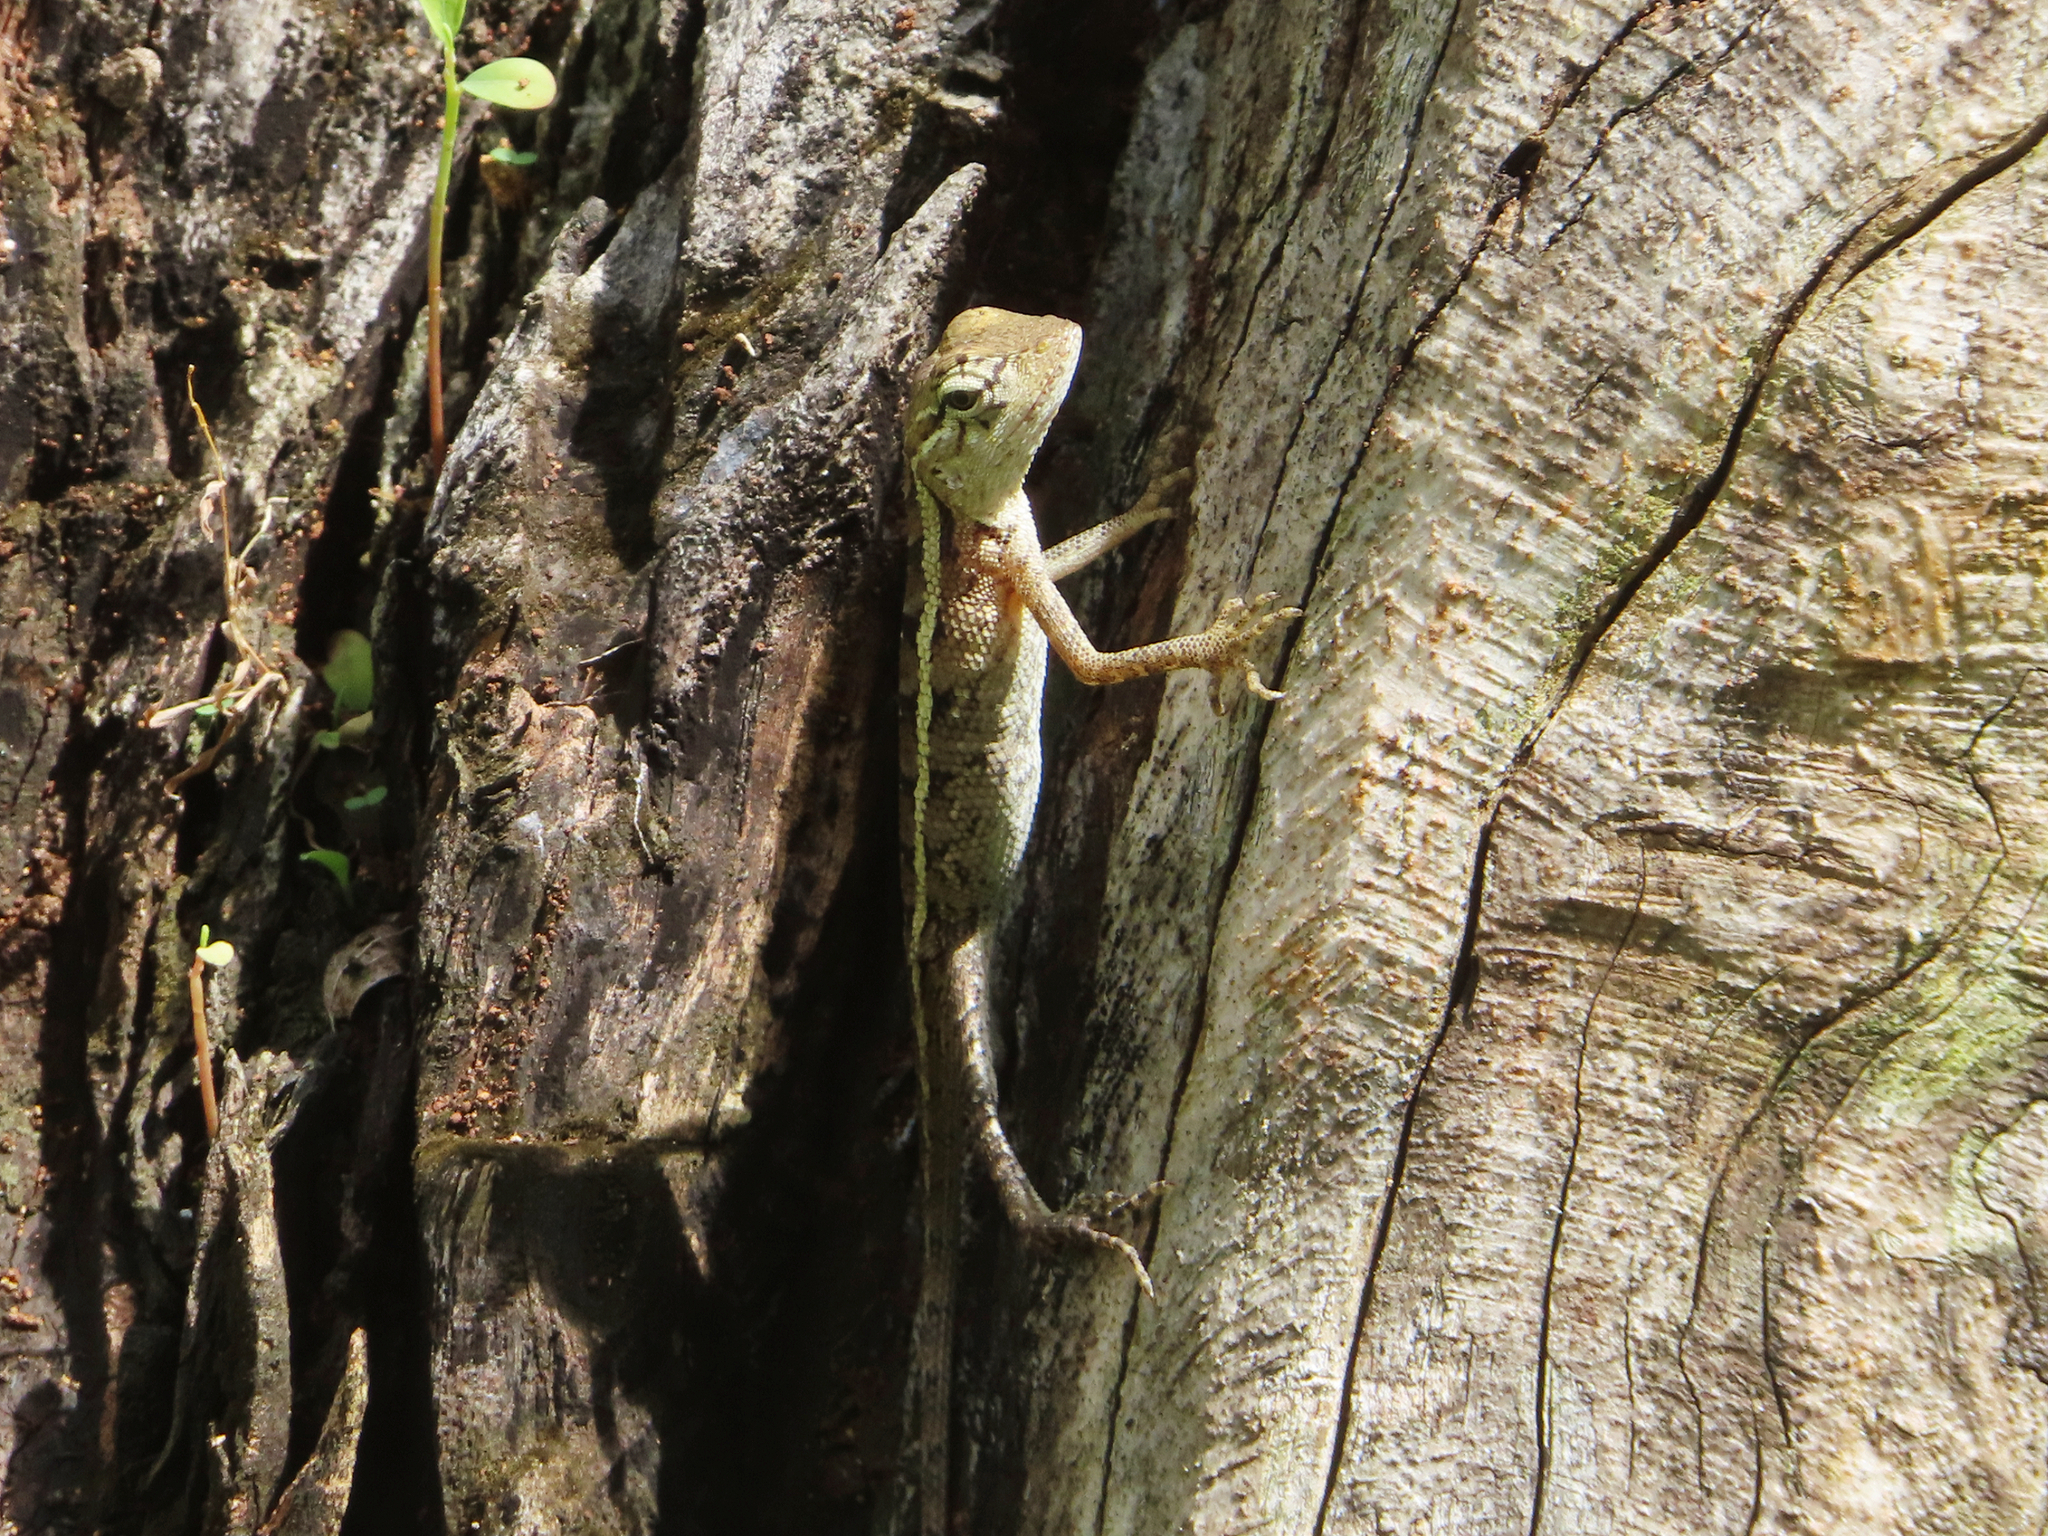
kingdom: Animalia
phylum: Chordata
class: Squamata
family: Agamidae
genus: Calotes
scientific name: Calotes versicolor
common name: Oriental garden lizard
